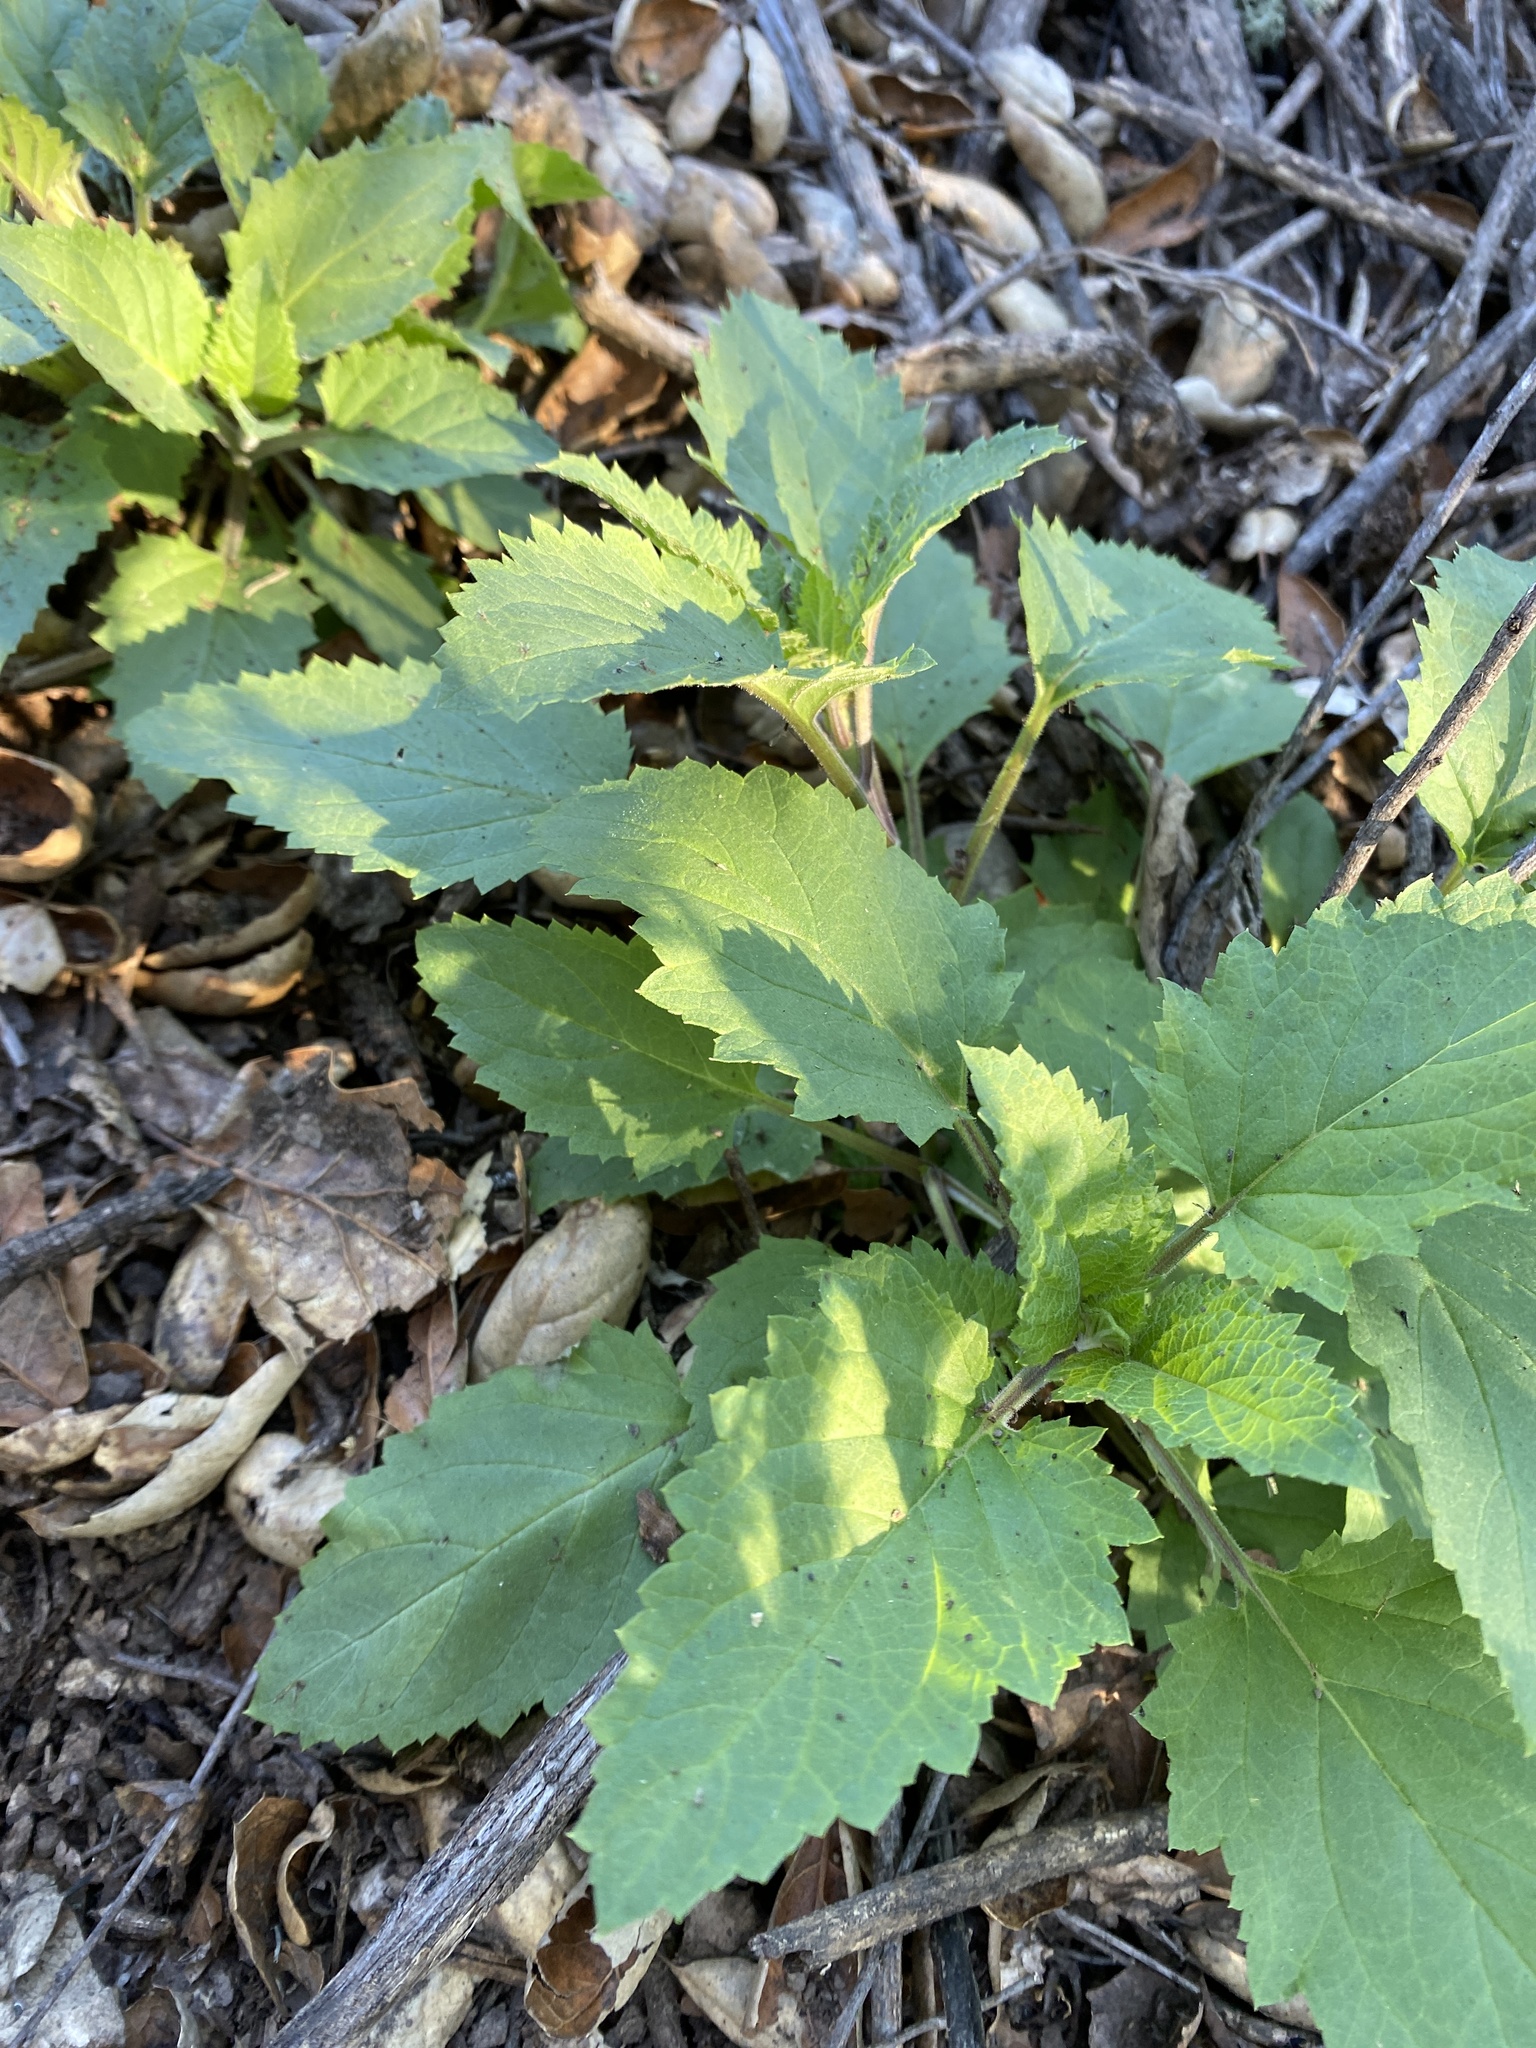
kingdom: Plantae
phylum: Tracheophyta
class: Magnoliopsida
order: Lamiales
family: Scrophulariaceae
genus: Scrophularia
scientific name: Scrophularia californica
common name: California figwort
